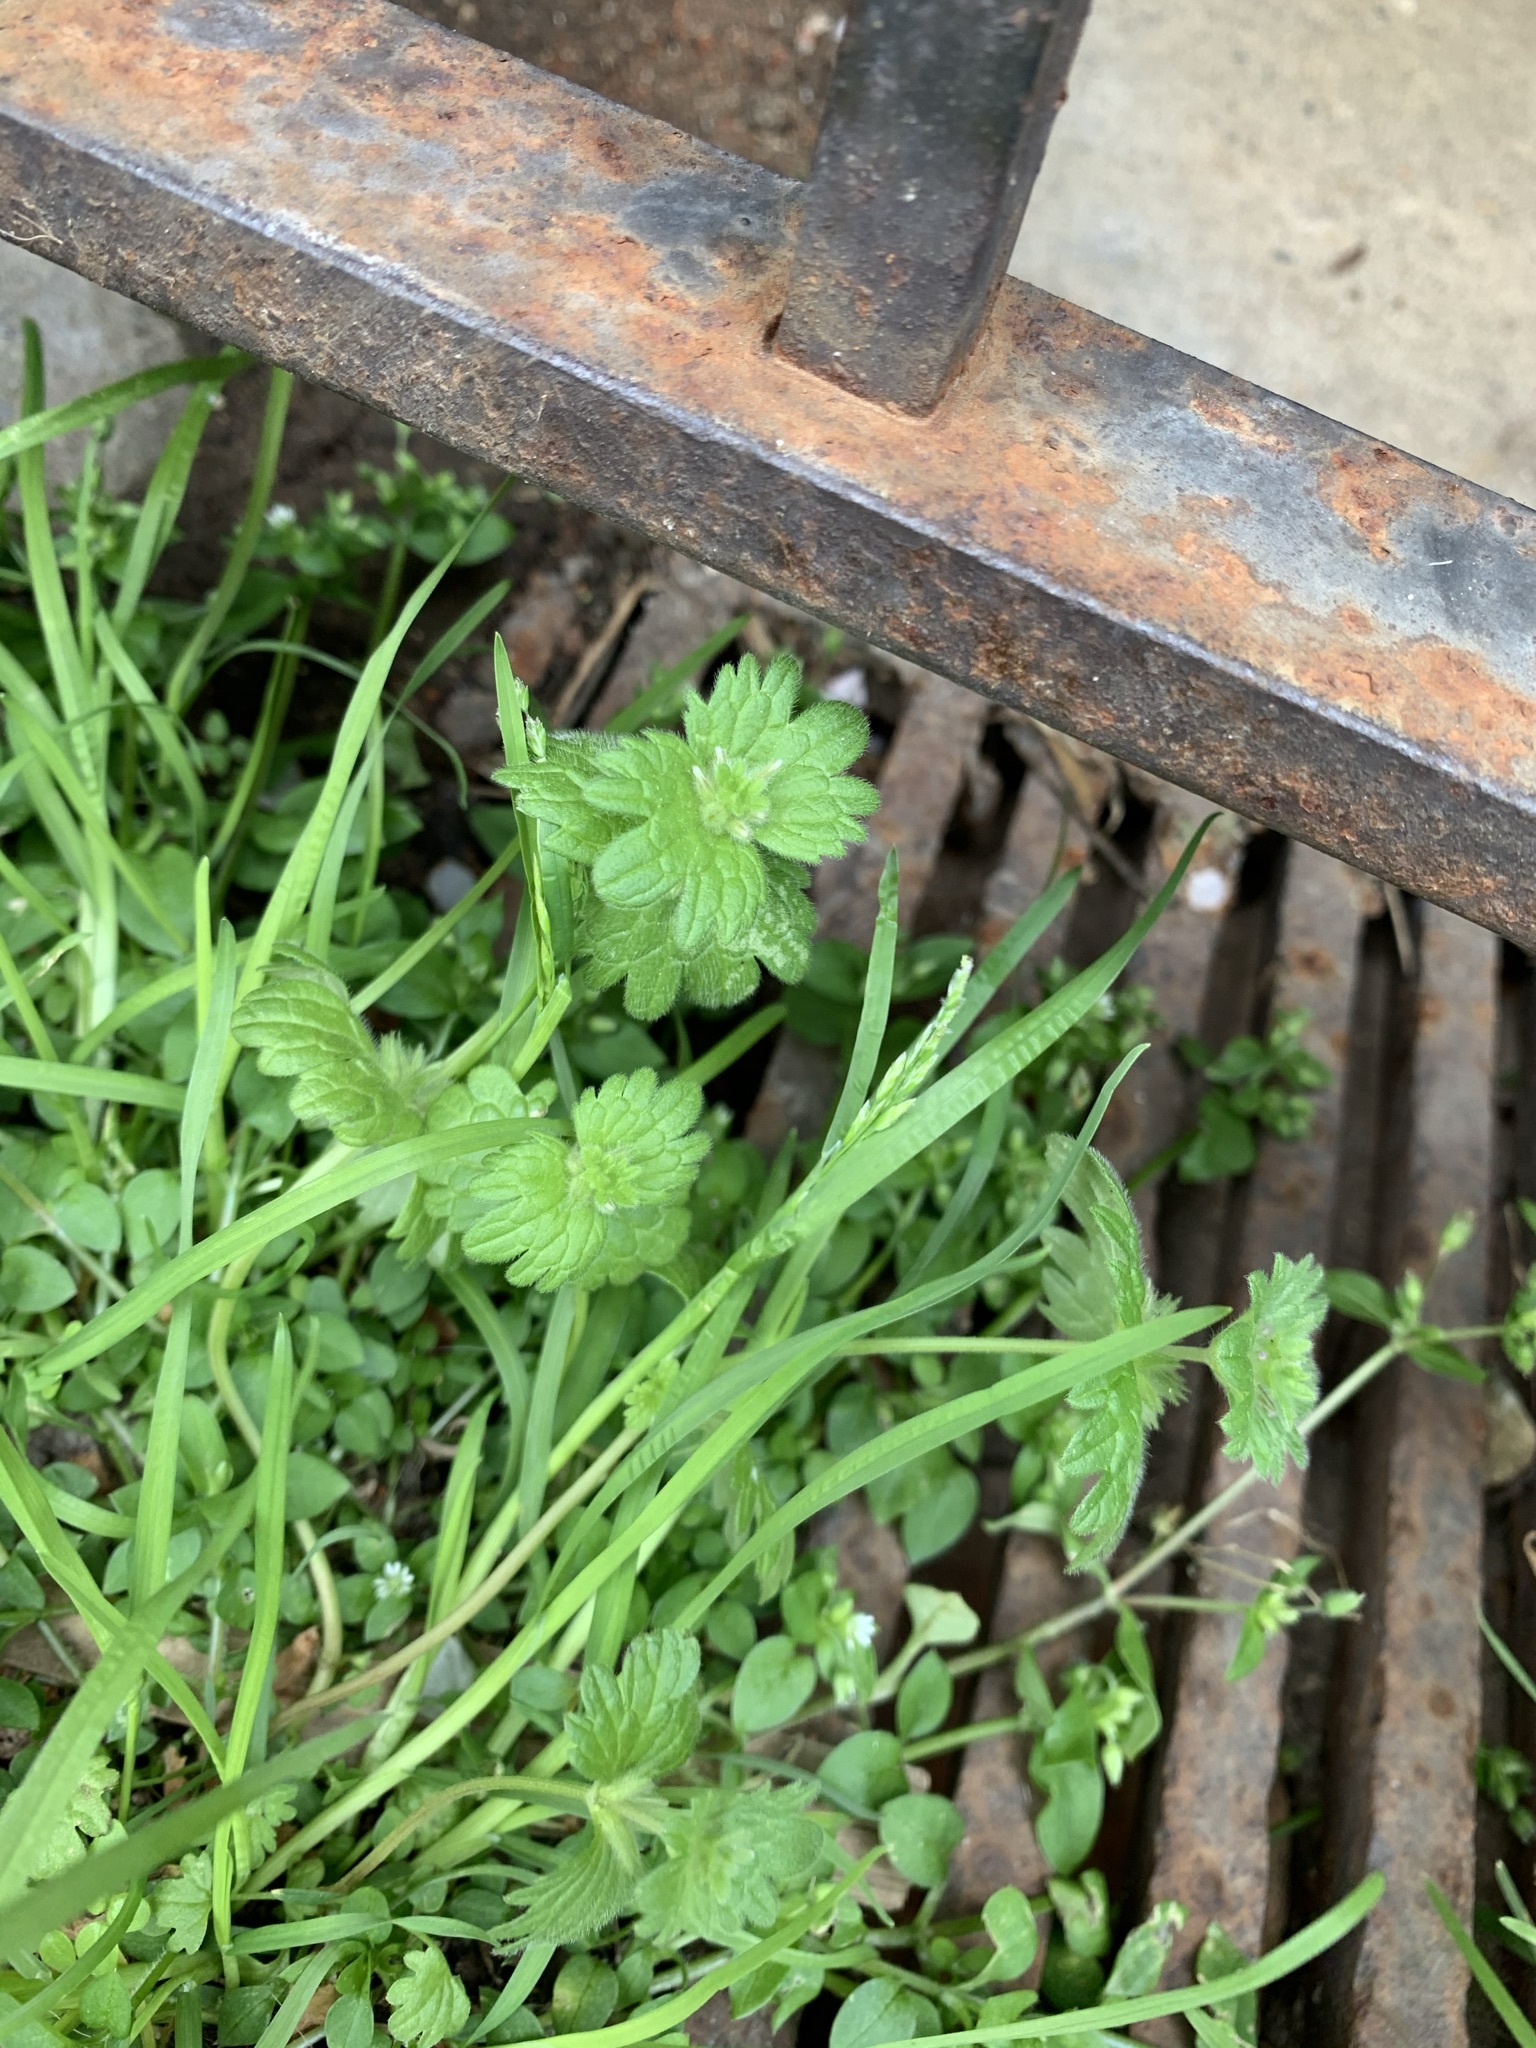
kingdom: Plantae
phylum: Tracheophyta
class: Magnoliopsida
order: Lamiales
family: Lamiaceae
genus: Lamium
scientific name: Lamium amplexicaule
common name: Henbit dead-nettle
